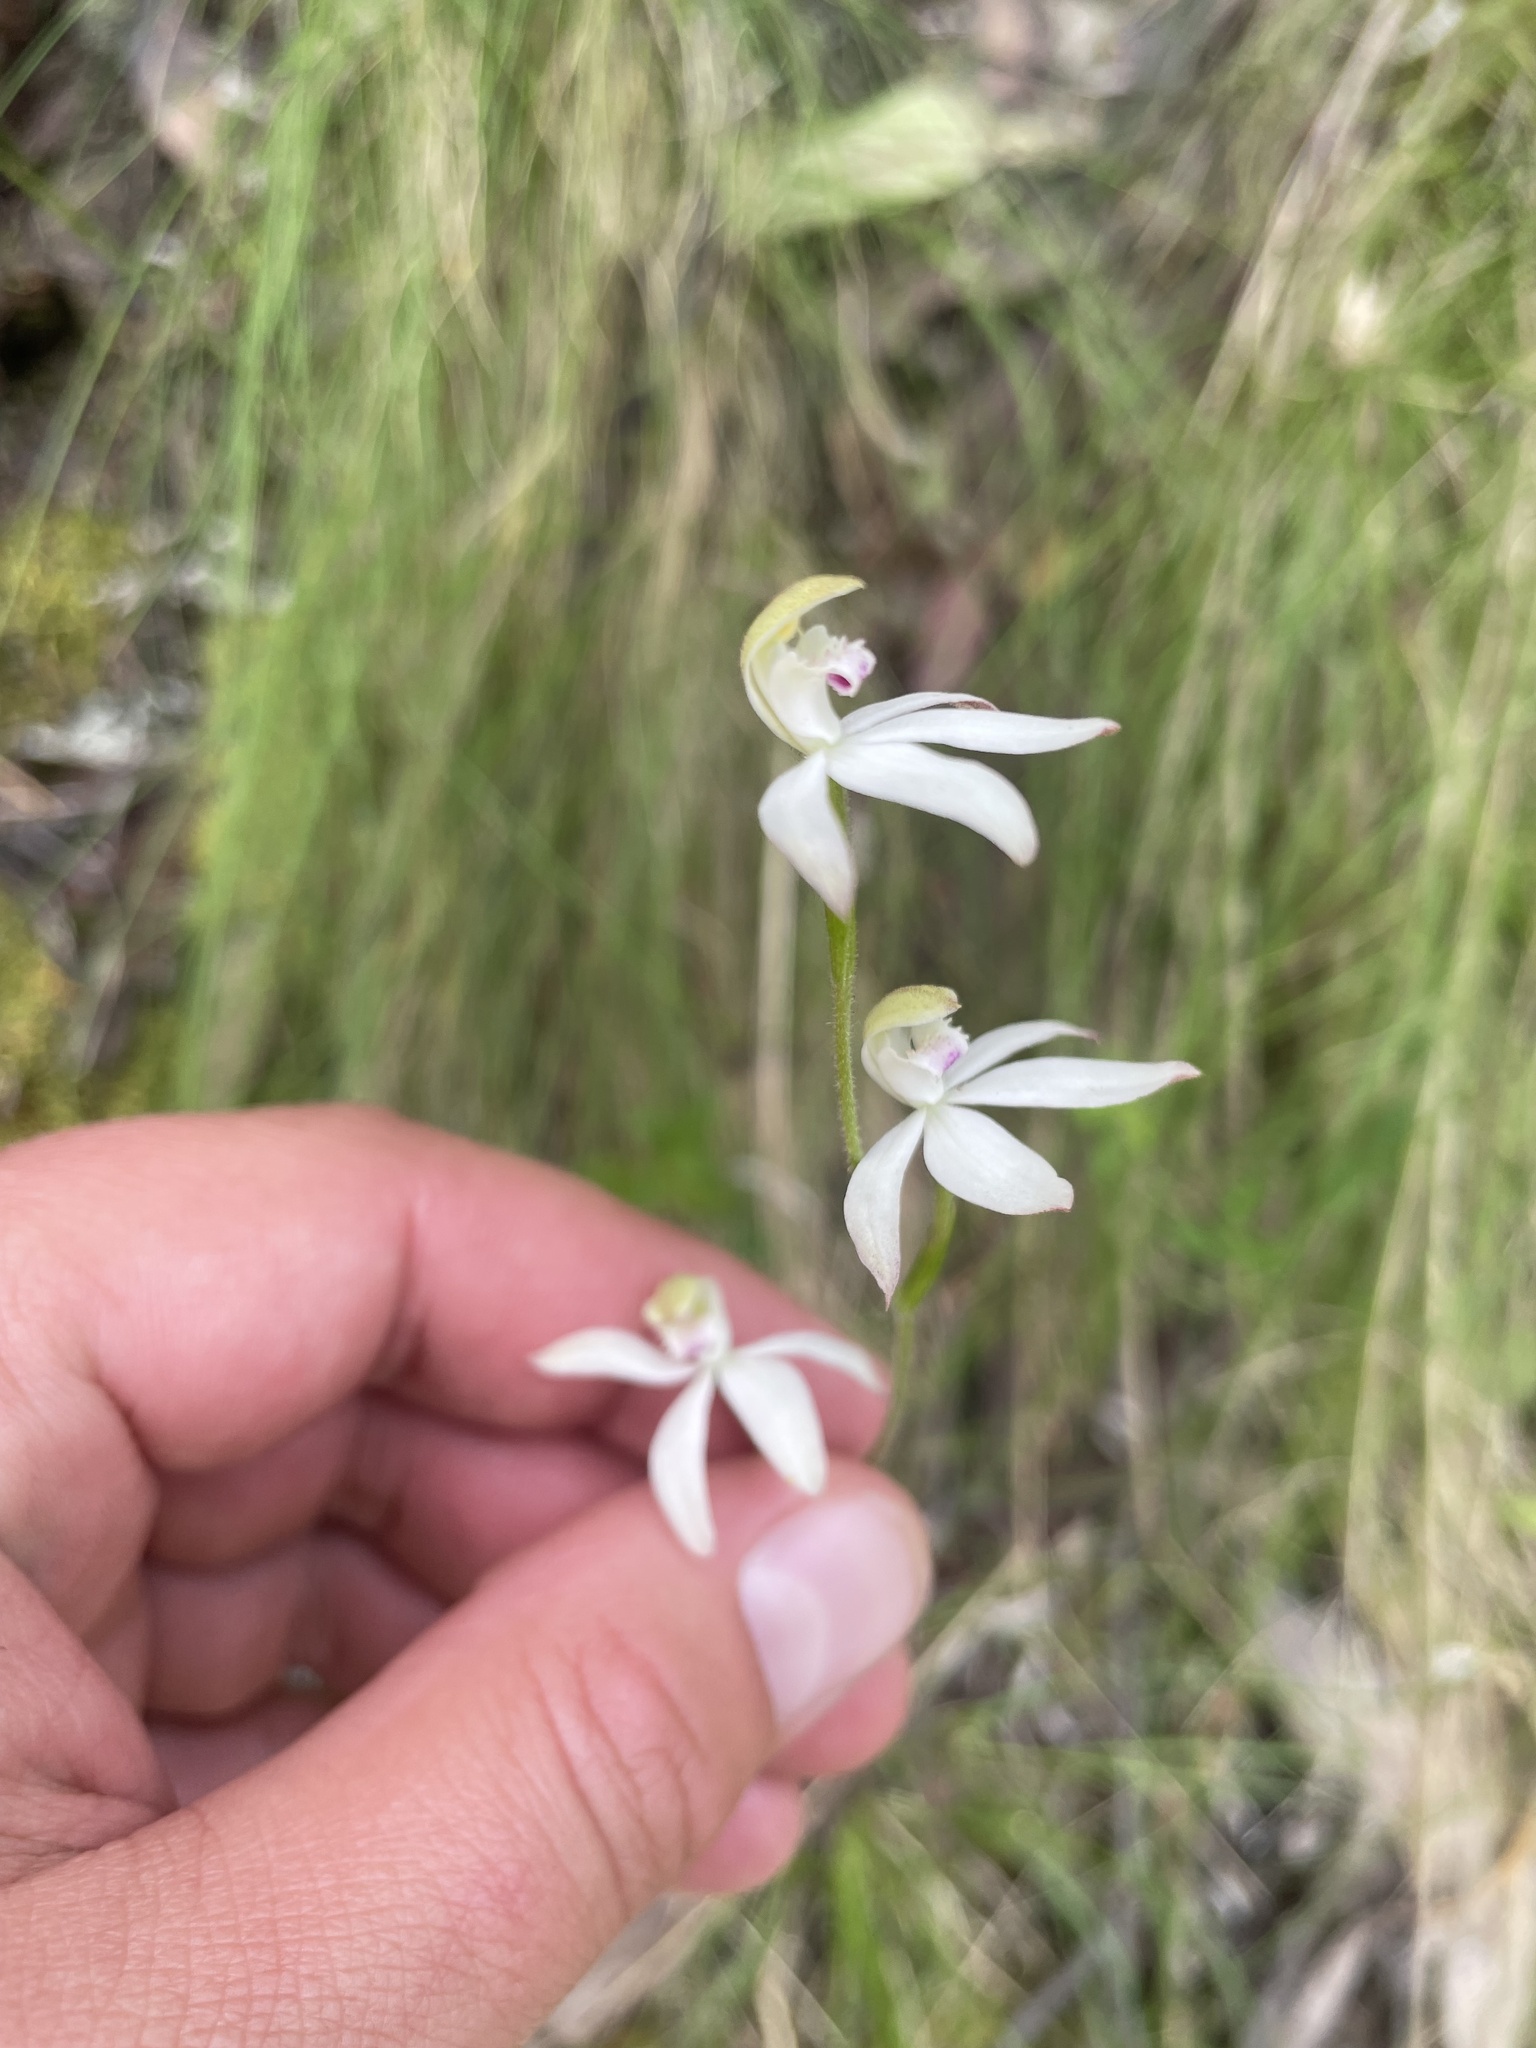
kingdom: Plantae
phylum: Tracheophyta
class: Liliopsida
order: Asparagales
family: Orchidaceae
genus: Caladenia
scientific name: Caladenia moschata
